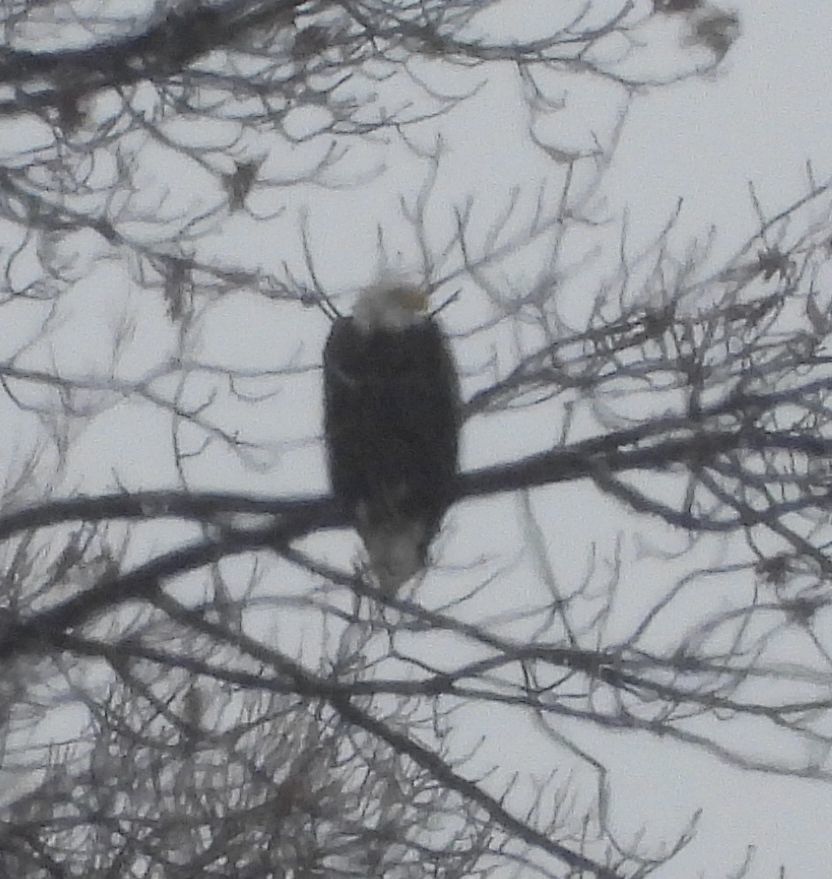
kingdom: Animalia
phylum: Chordata
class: Aves
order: Accipitriformes
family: Accipitridae
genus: Haliaeetus
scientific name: Haliaeetus leucocephalus
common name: Bald eagle
